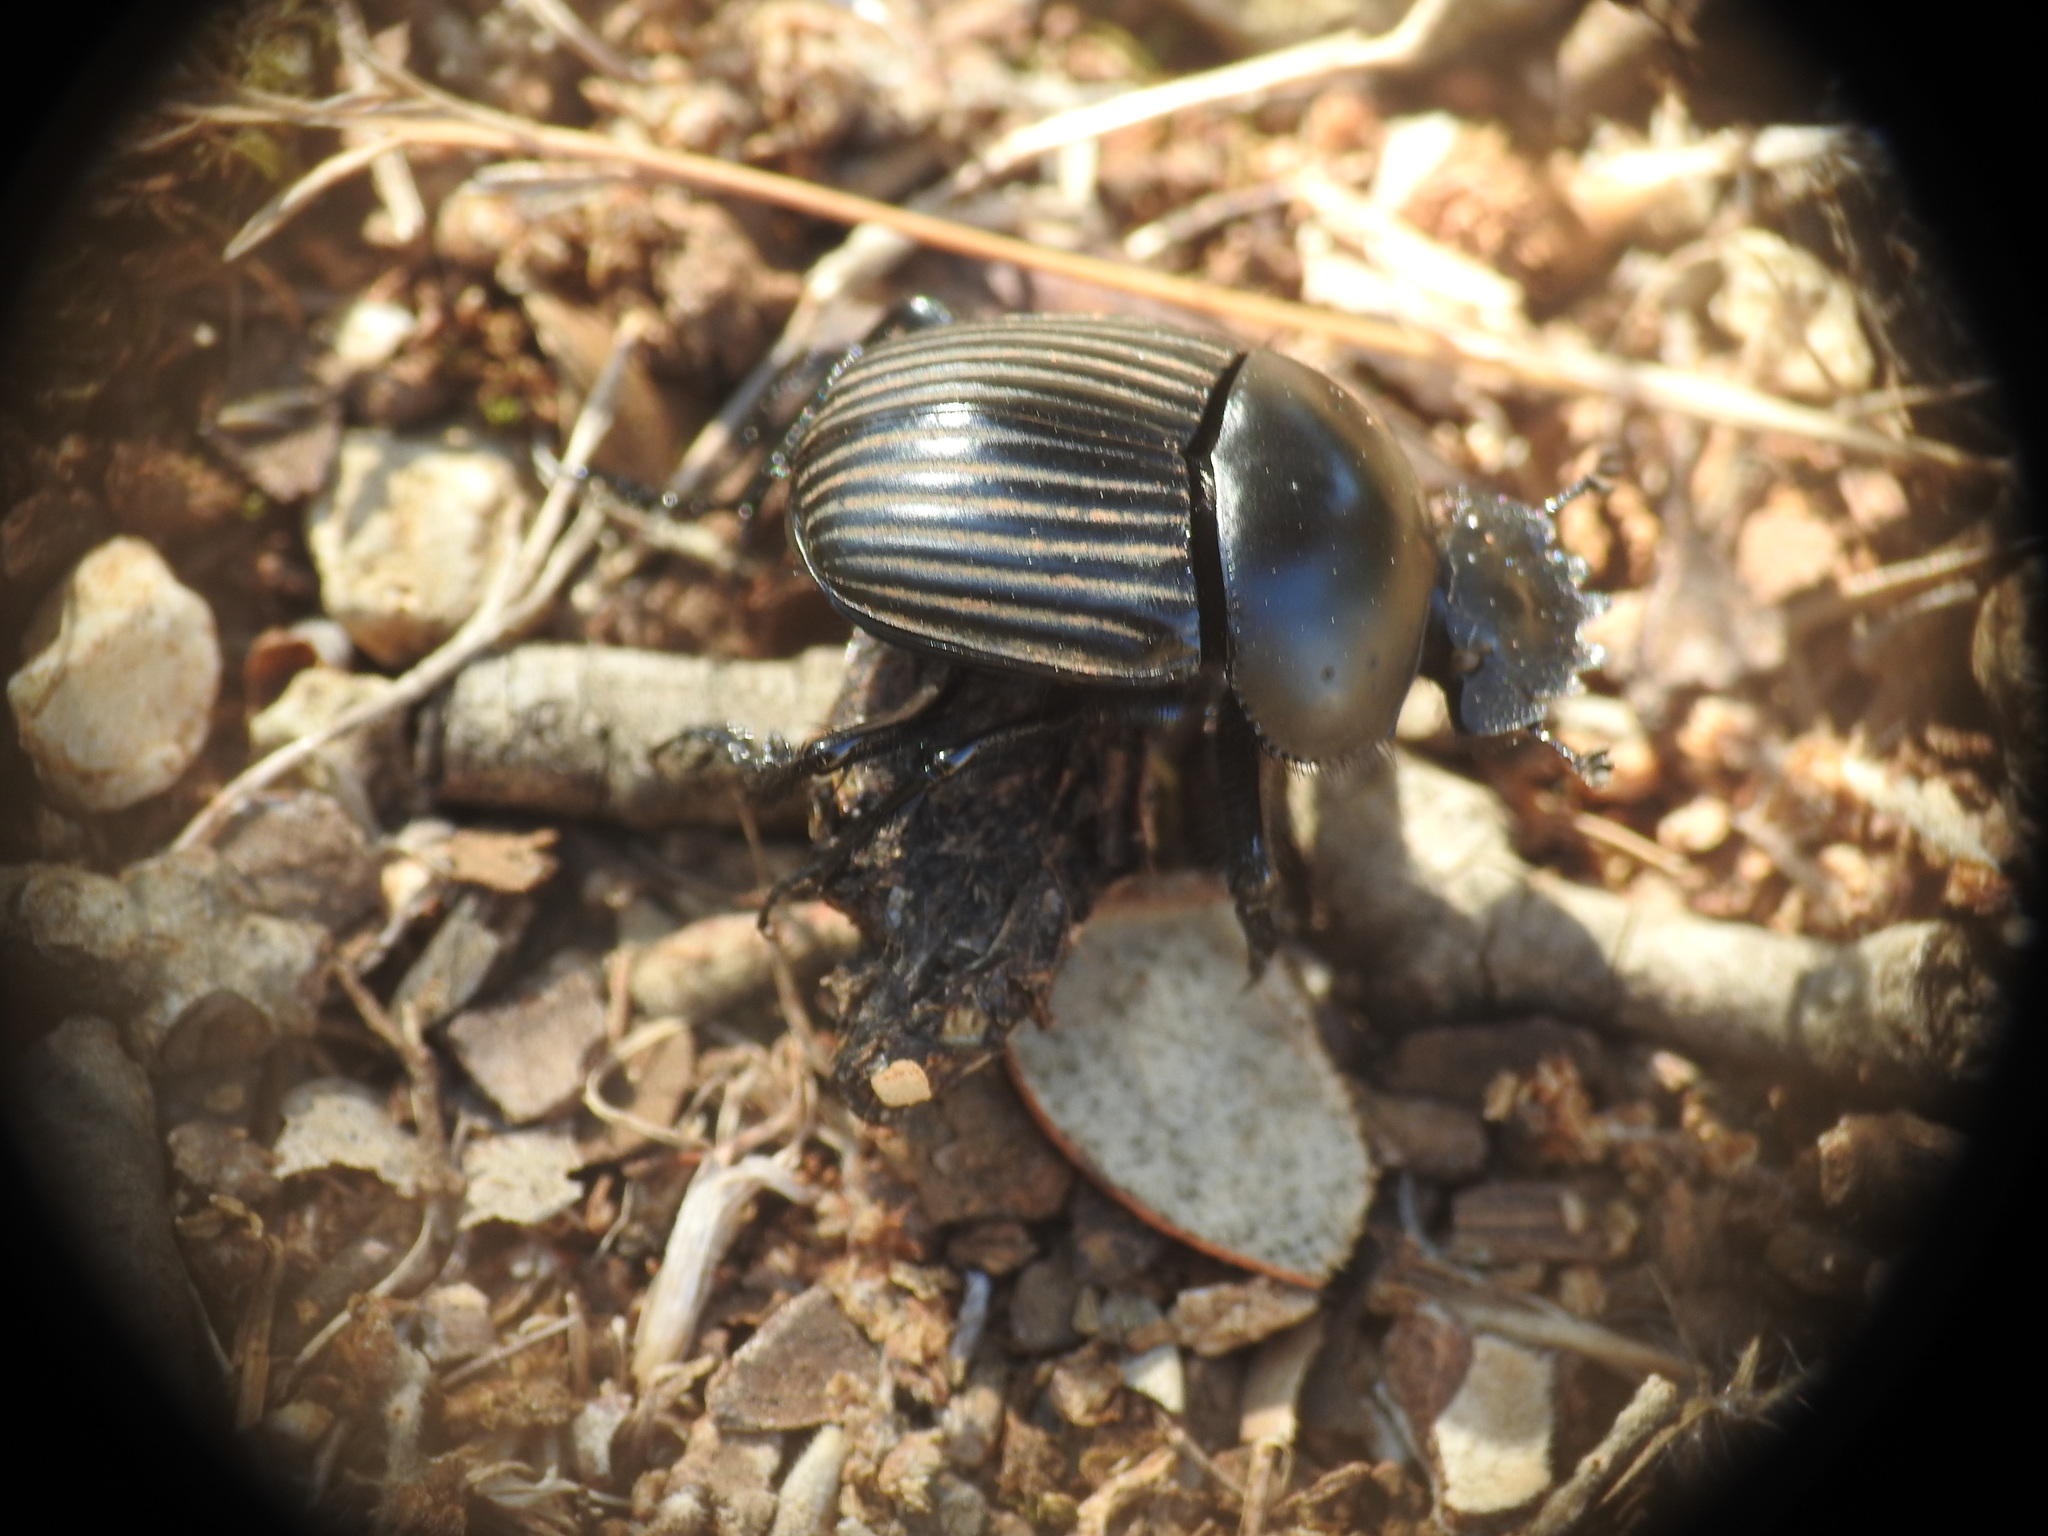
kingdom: Animalia
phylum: Arthropoda
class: Insecta
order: Coleoptera
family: Scarabaeidae
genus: Ateuchetus
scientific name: Ateuchetus laticollis
